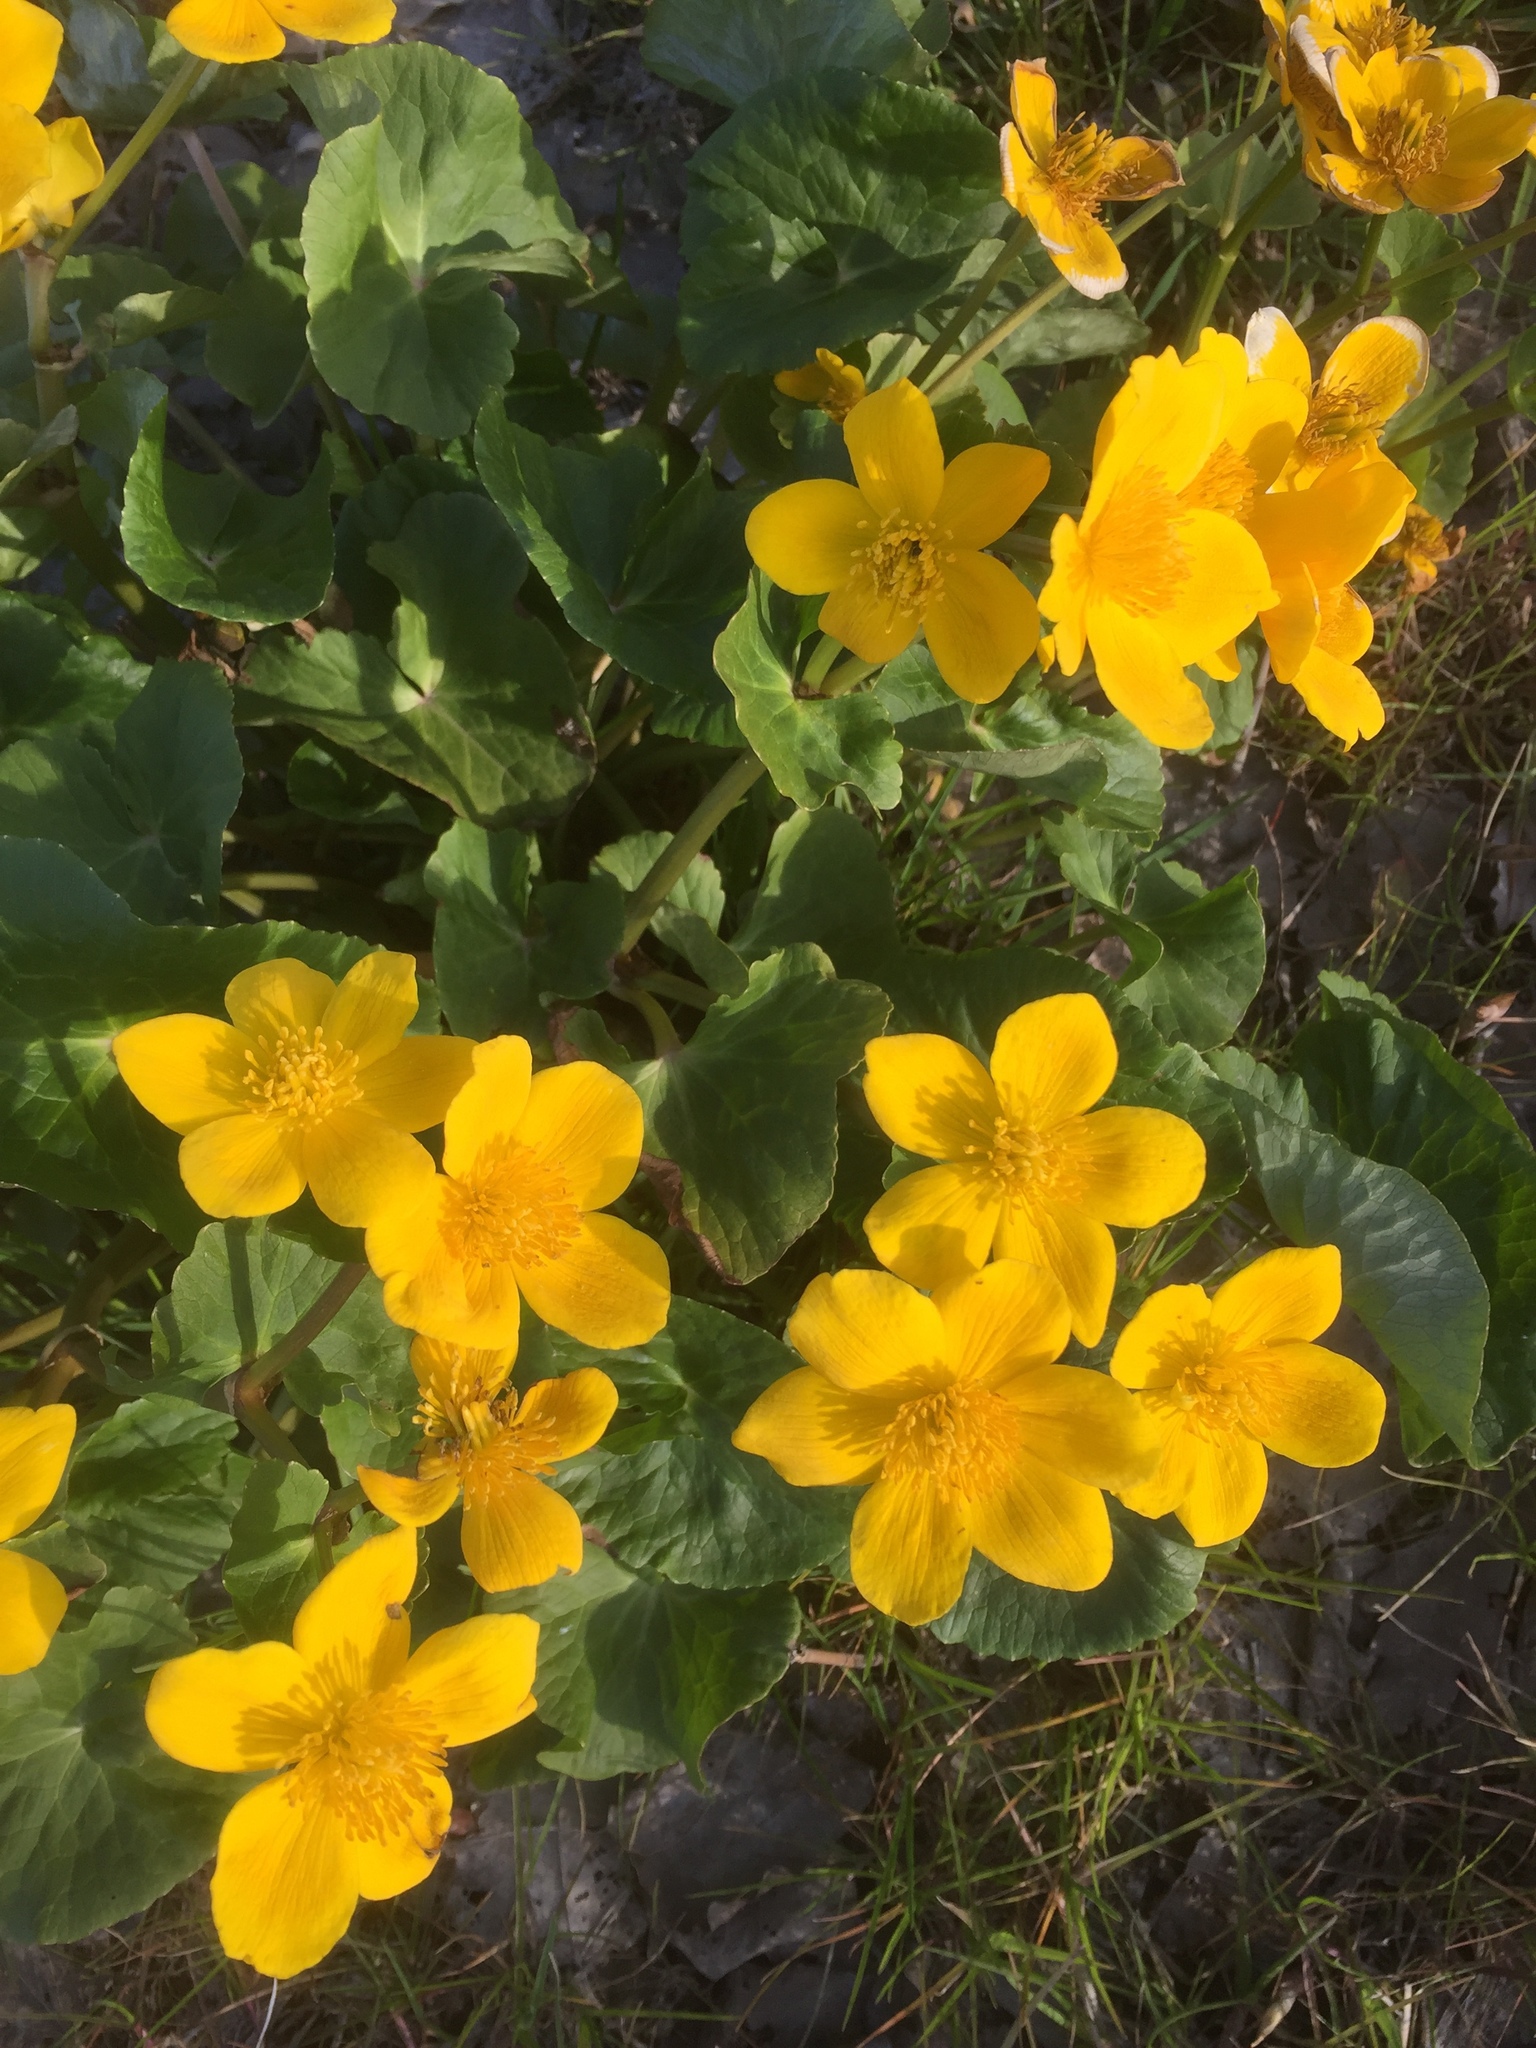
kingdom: Plantae
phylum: Tracheophyta
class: Magnoliopsida
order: Ranunculales
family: Ranunculaceae
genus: Caltha
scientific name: Caltha palustris
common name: Marsh marigold
